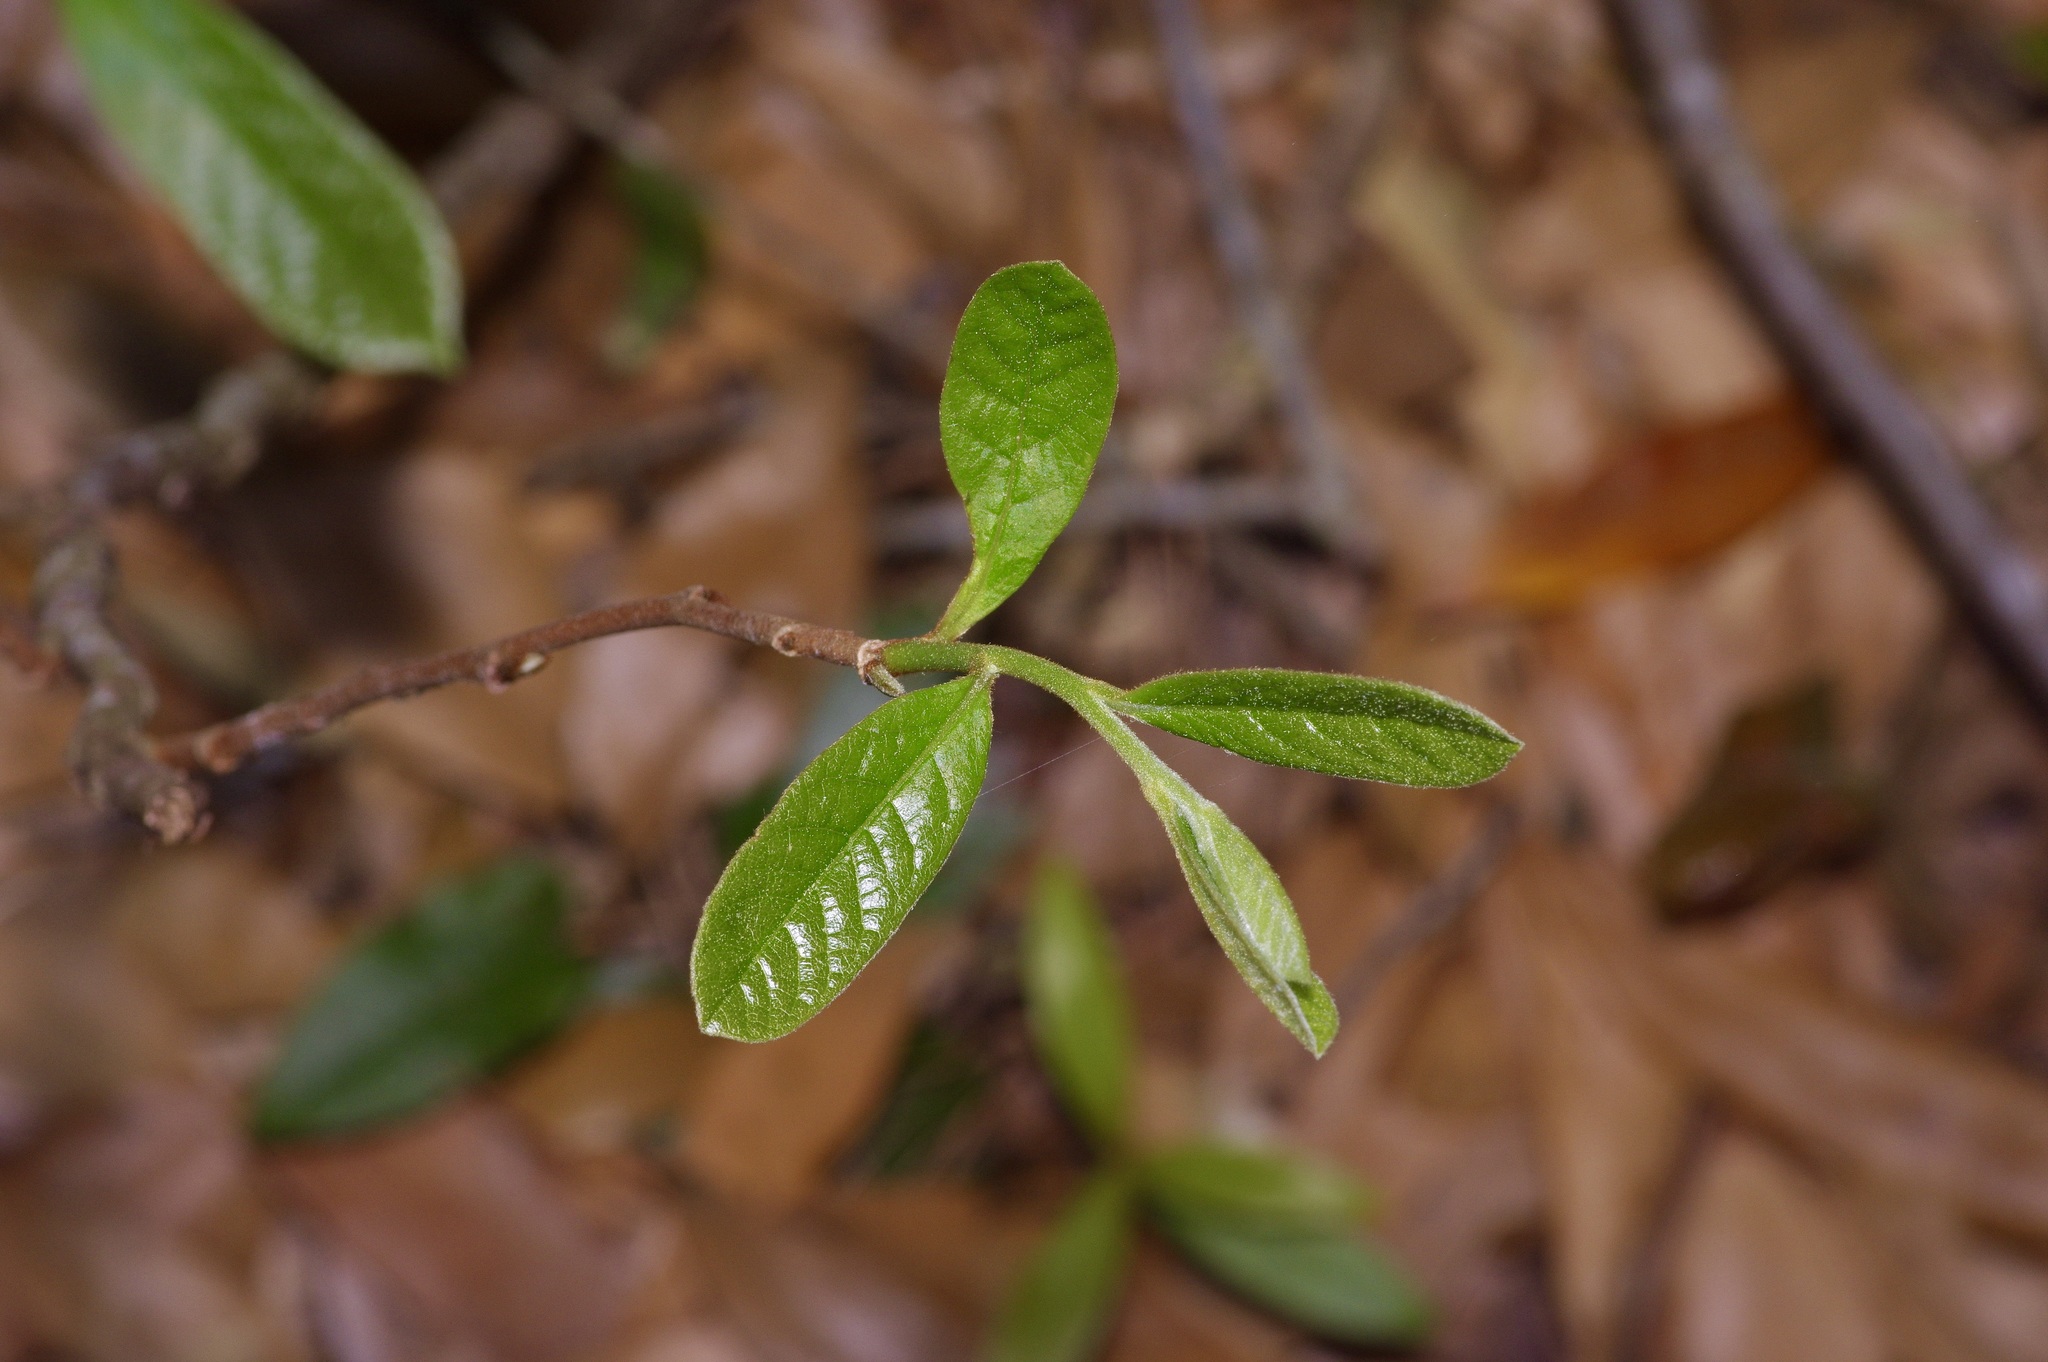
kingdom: Plantae
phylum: Tracheophyta
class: Magnoliopsida
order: Magnoliales
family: Annonaceae
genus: Asimina
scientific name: Asimina parviflora
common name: Dwarf pawpaw
